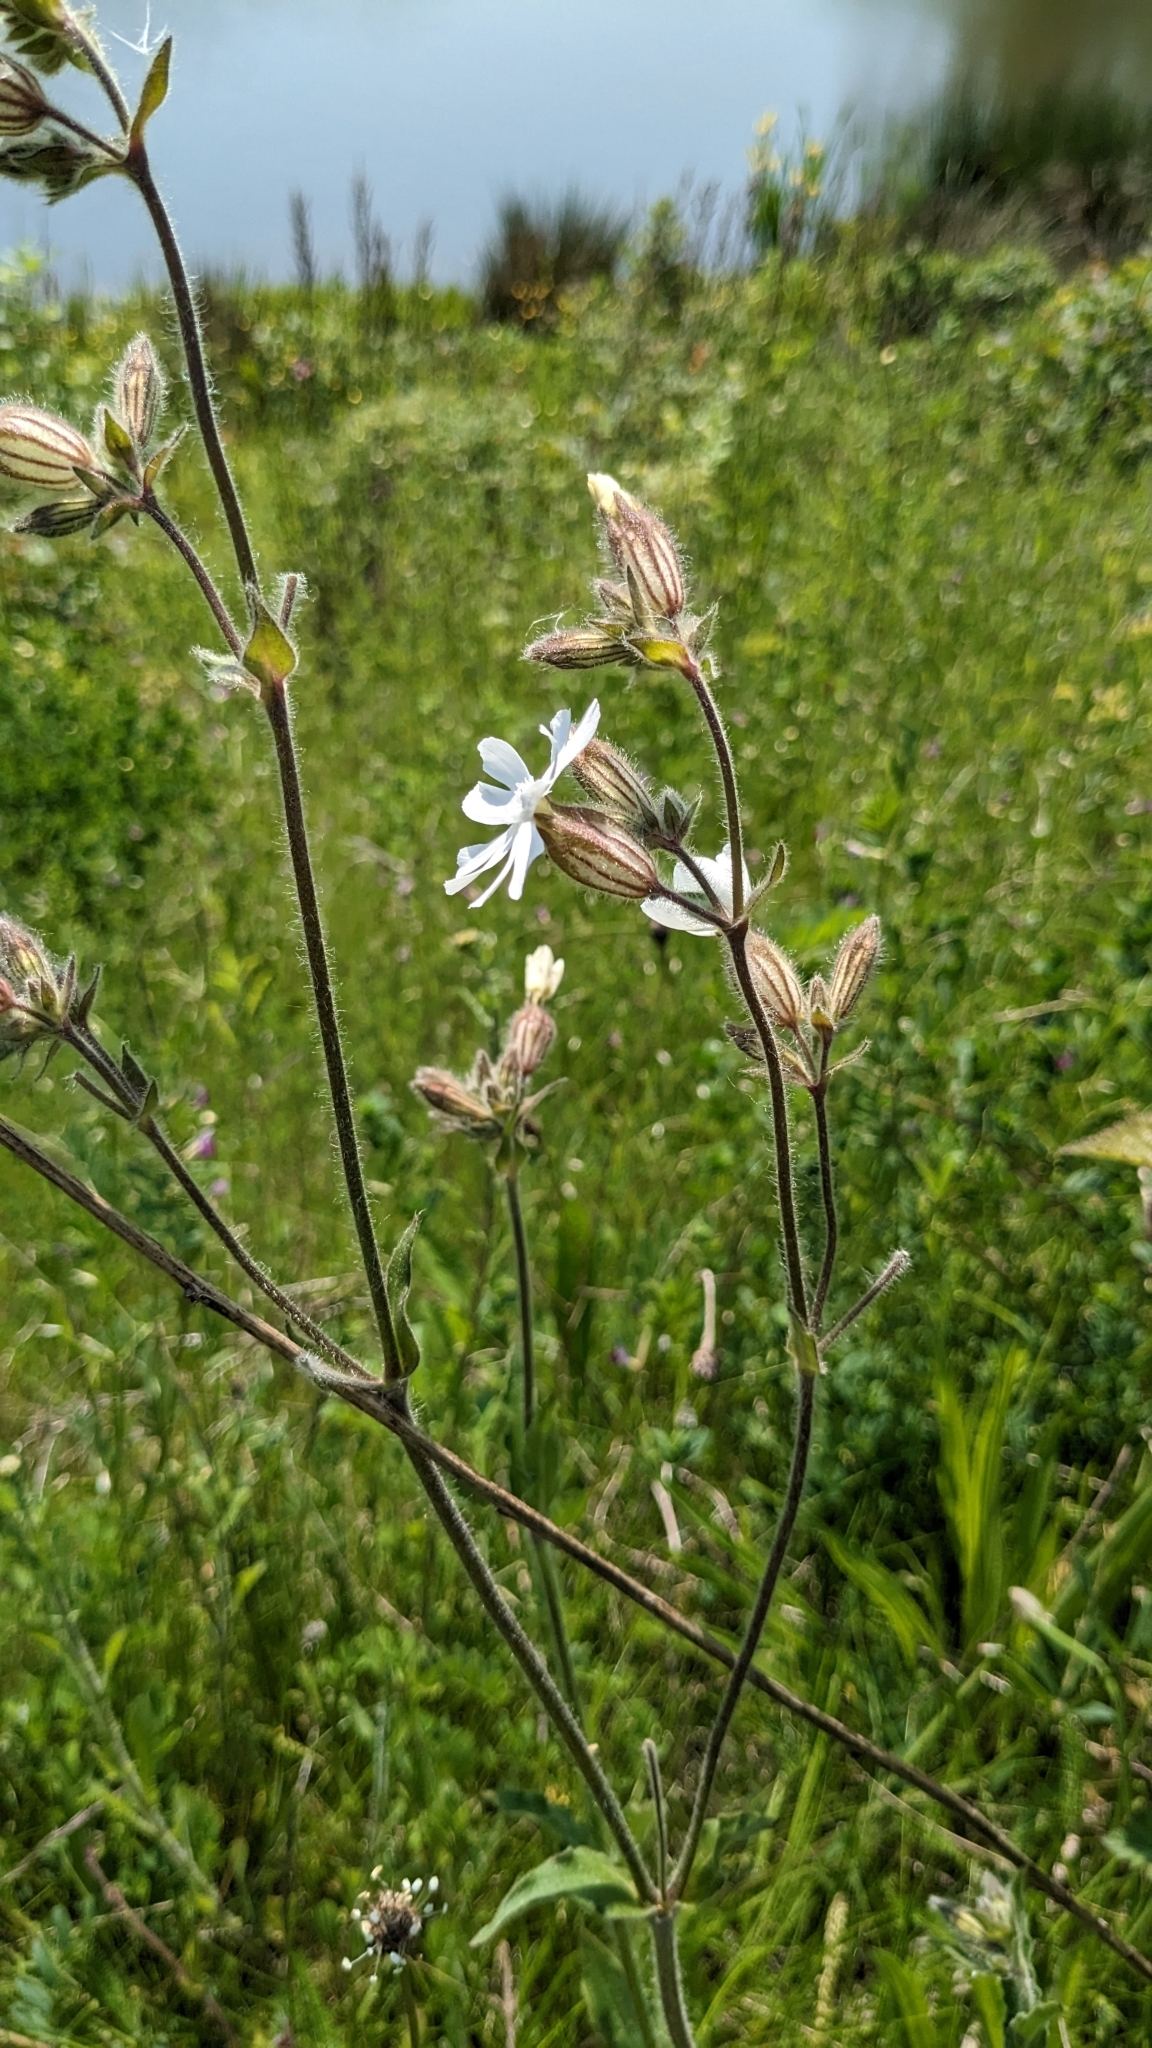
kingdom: Plantae
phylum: Tracheophyta
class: Magnoliopsida
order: Caryophyllales
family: Caryophyllaceae
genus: Silene
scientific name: Silene latifolia
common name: White campion
